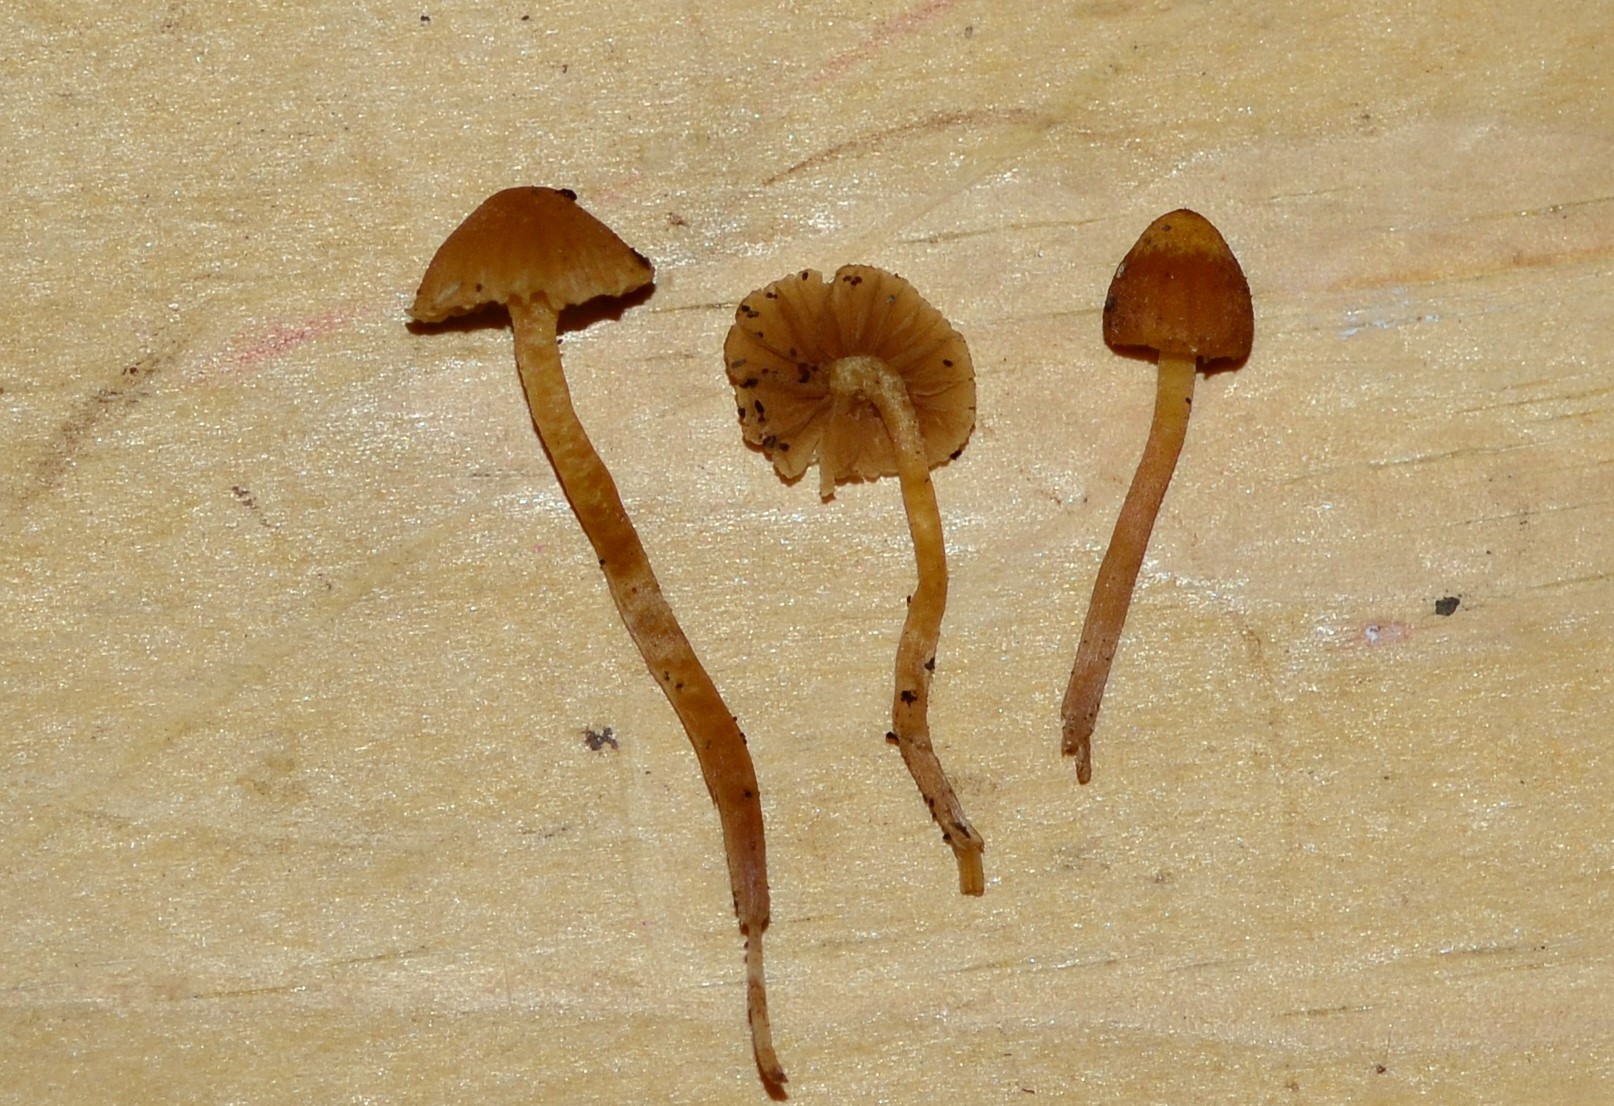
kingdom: Fungi
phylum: Basidiomycota
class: Agaricomycetes
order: Agaricales
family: Hymenogastraceae
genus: Galerina
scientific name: Galerina clavata
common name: Ribbed bell
